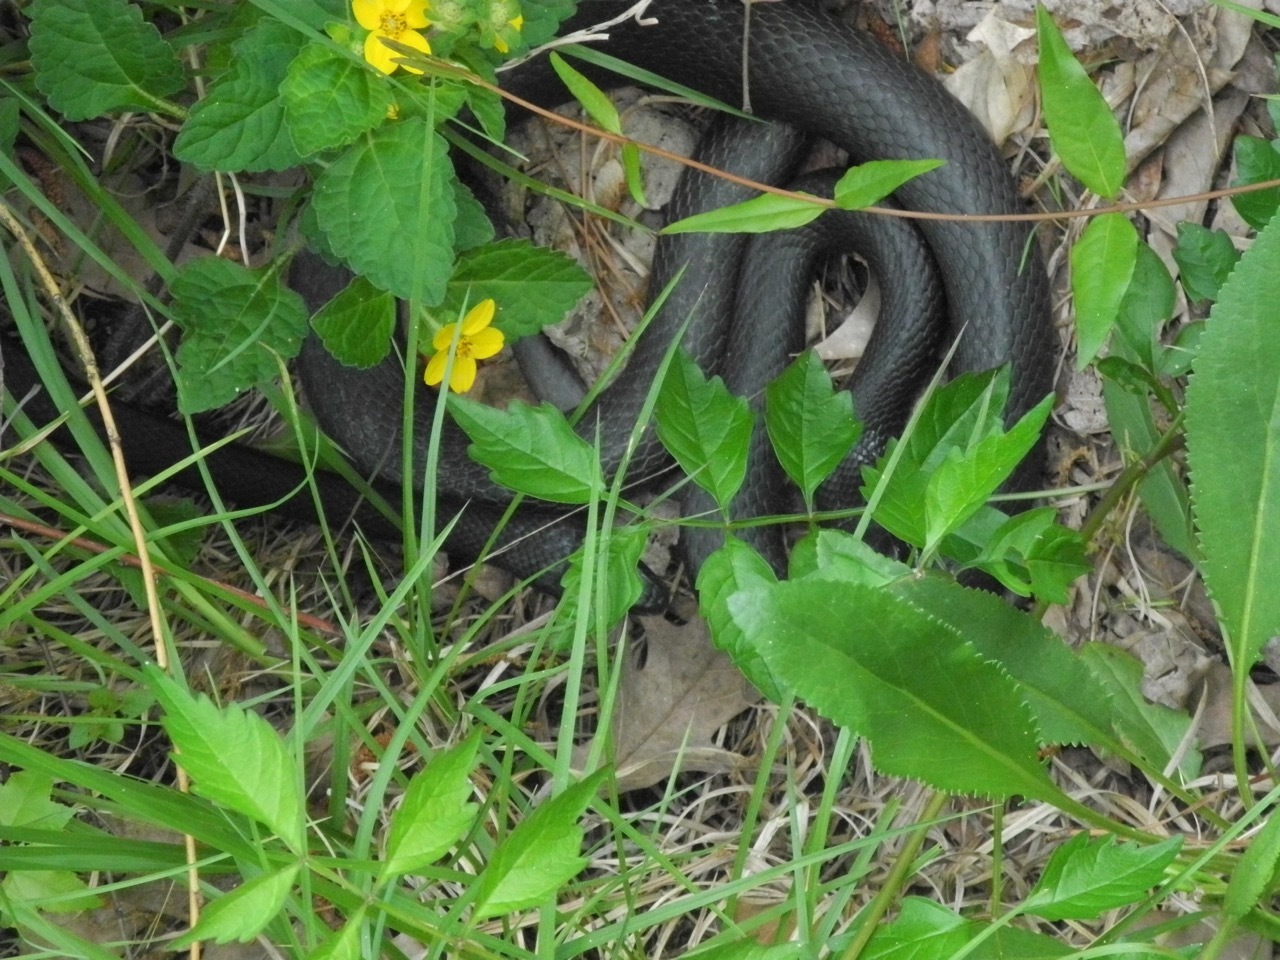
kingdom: Animalia
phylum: Chordata
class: Squamata
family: Colubridae
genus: Coluber
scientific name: Coluber constrictor
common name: Eastern racer
